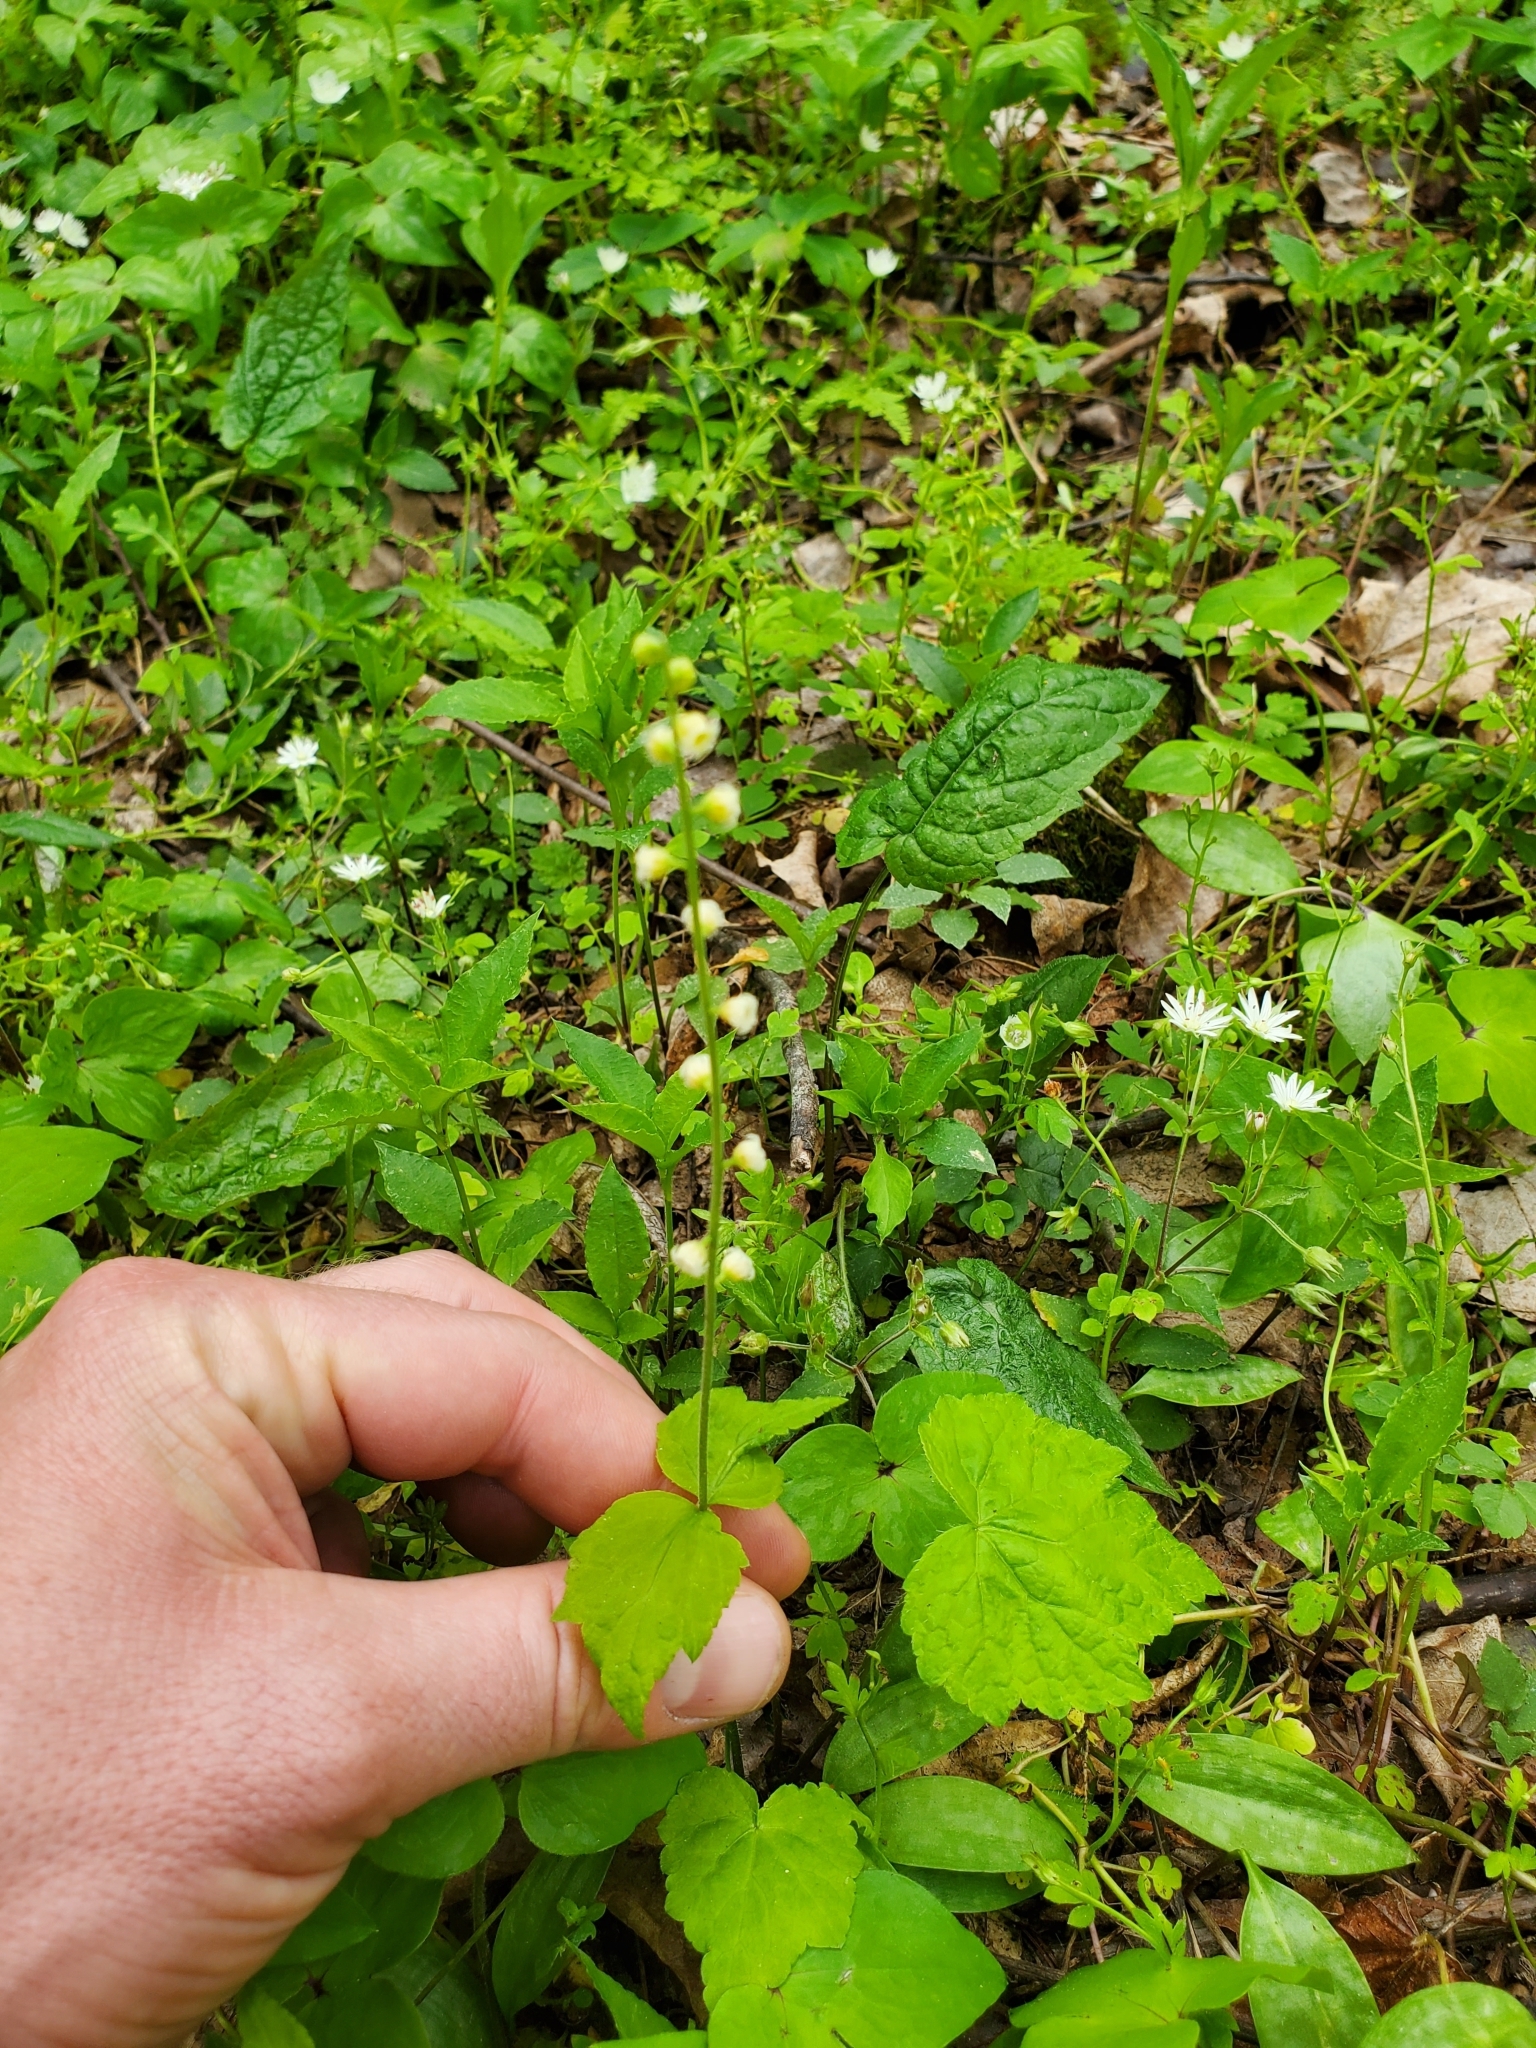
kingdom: Plantae
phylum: Tracheophyta
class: Magnoliopsida
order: Saxifragales
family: Saxifragaceae
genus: Mitella
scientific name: Mitella diphylla
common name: Coolwort
